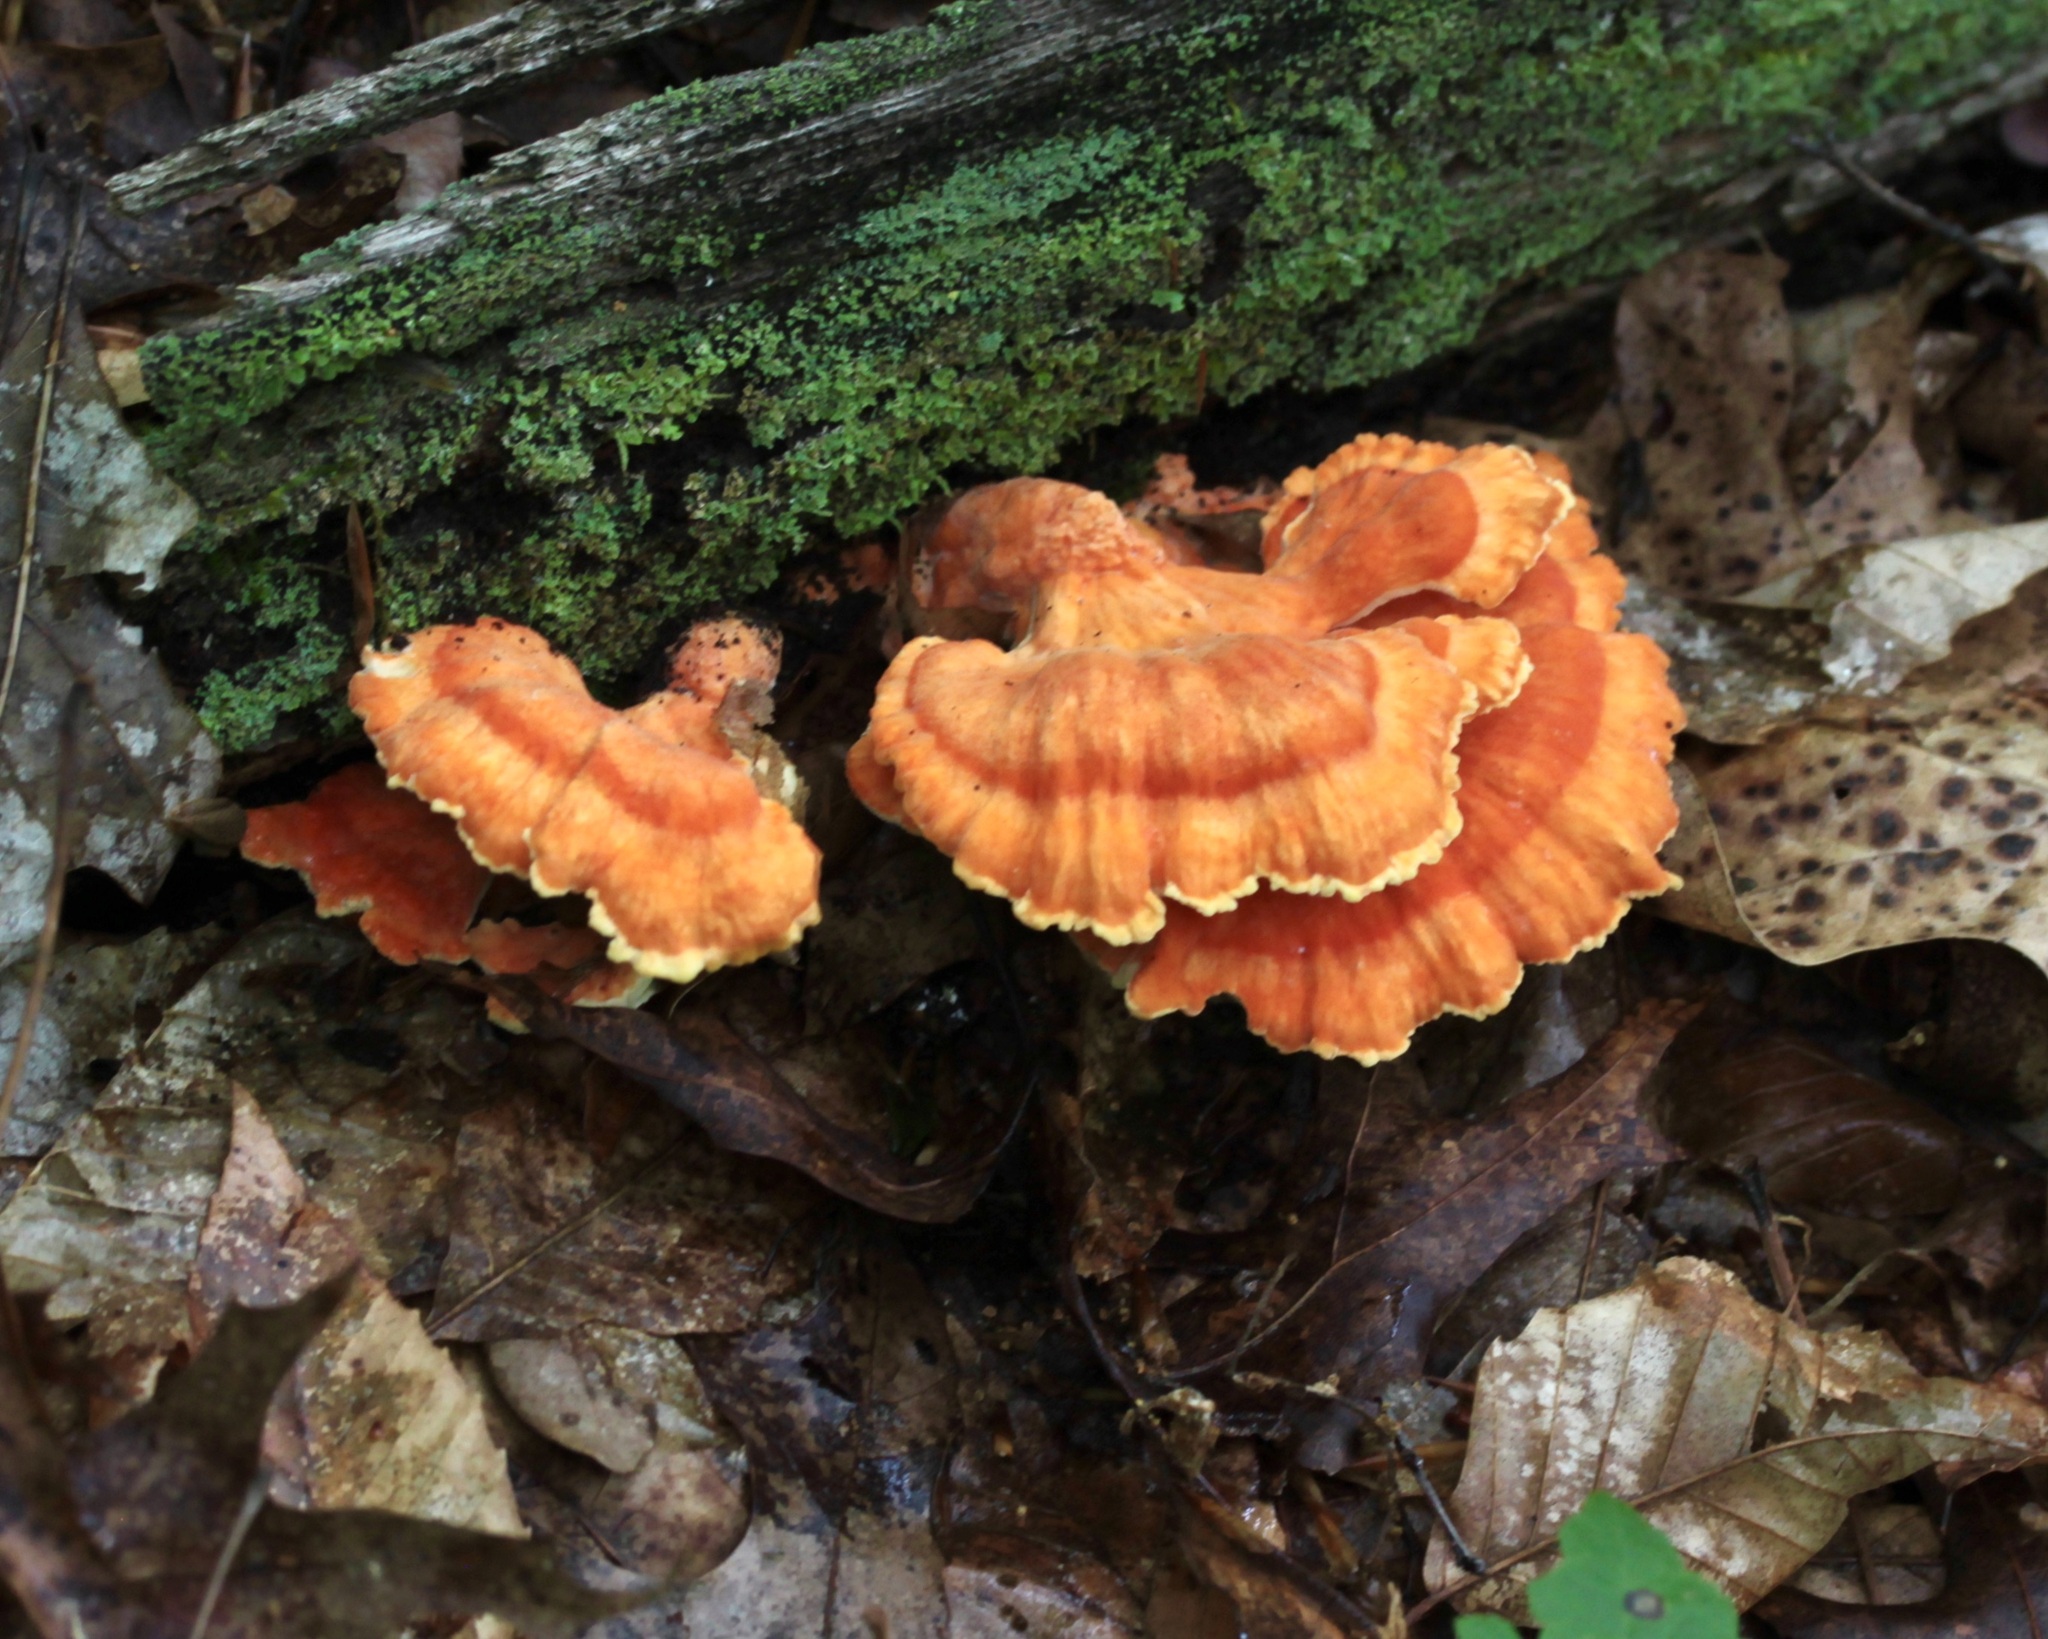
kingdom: Fungi
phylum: Basidiomycota
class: Agaricomycetes
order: Polyporales
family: Laetiporaceae
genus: Laetiporus
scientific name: Laetiporus sulphureus
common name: Chicken of the woods
